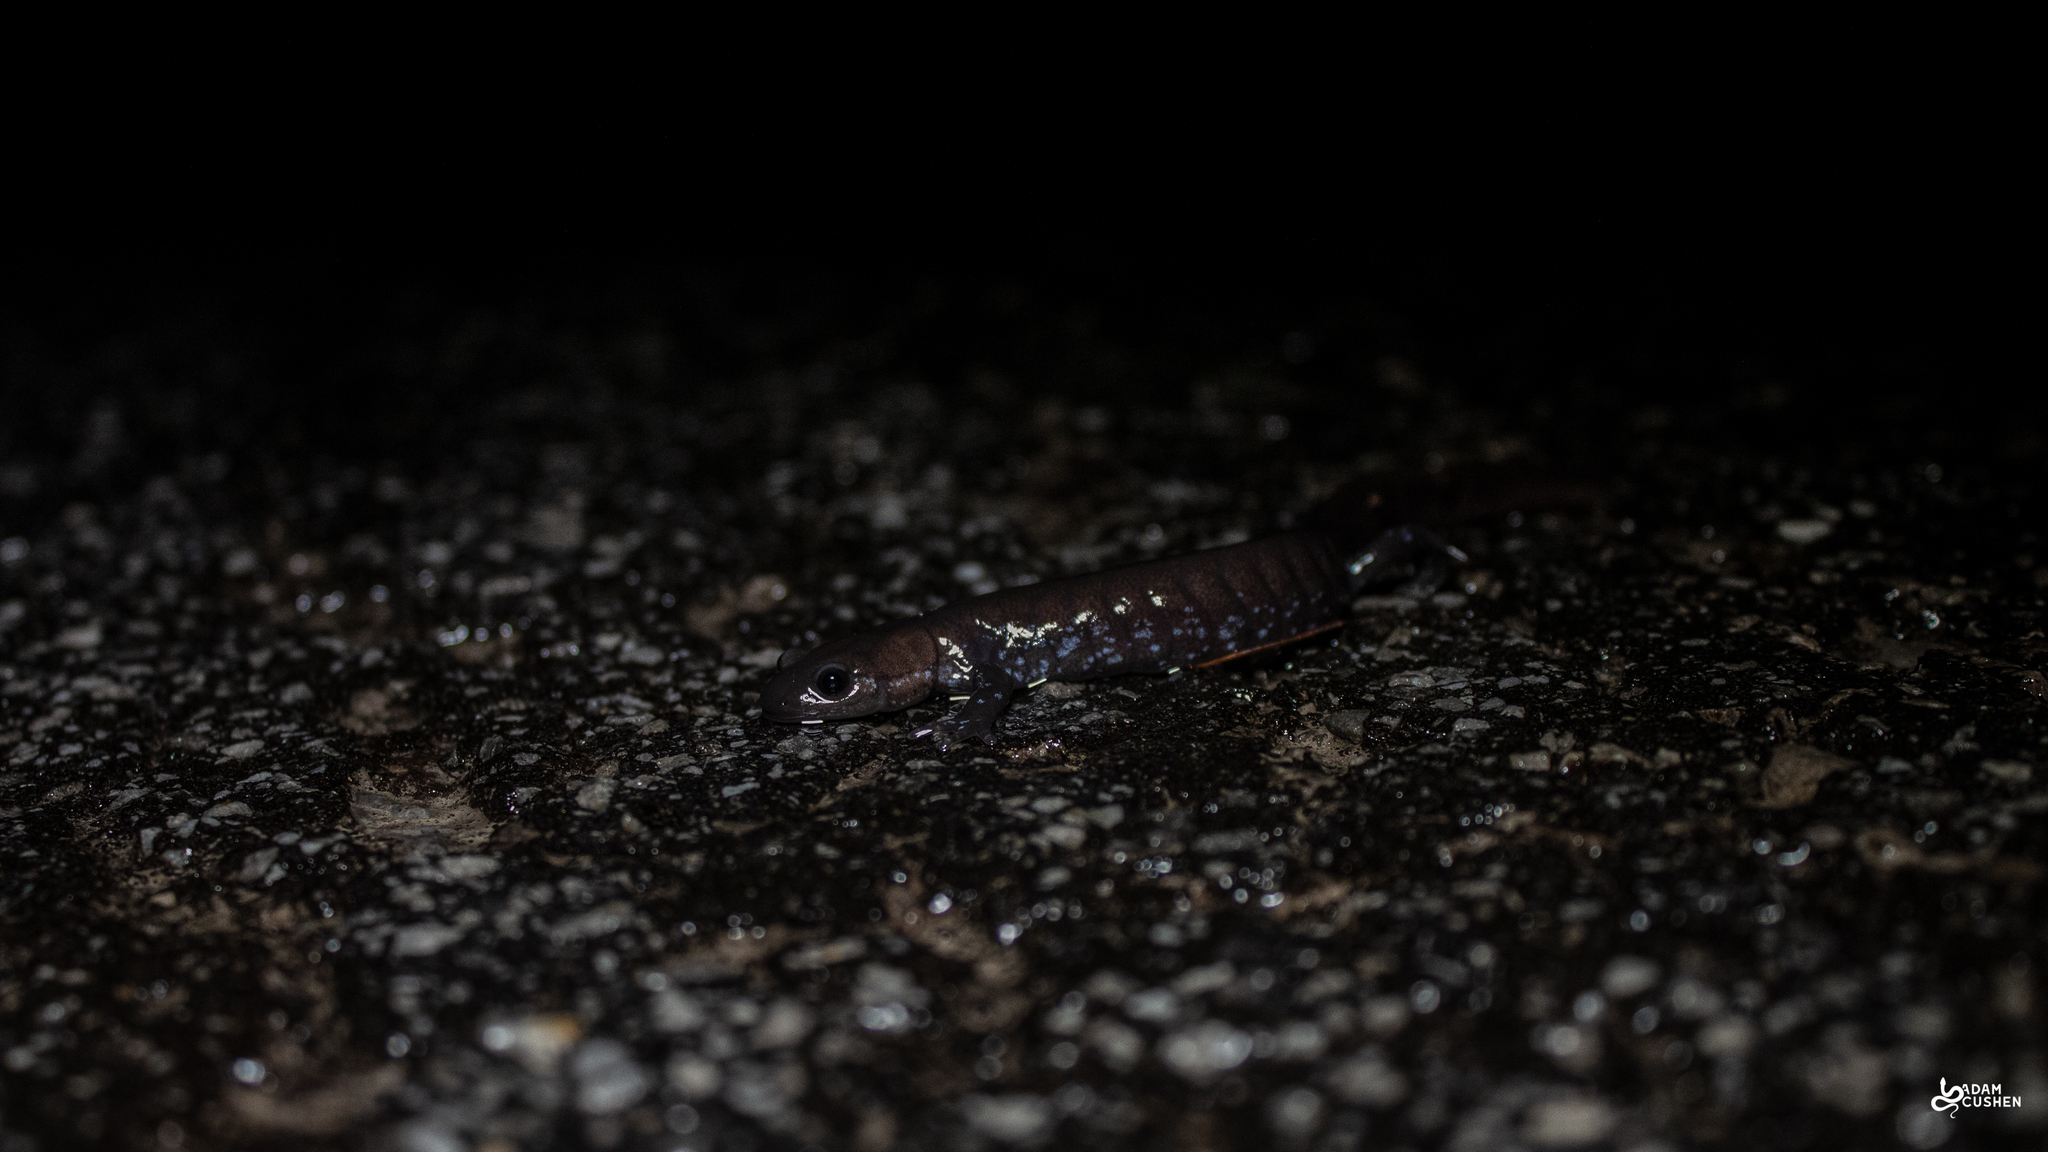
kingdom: Animalia
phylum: Chordata
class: Amphibia
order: Caudata
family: Ambystomatidae
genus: Ambystoma
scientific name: Ambystoma laterale
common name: Blue-spotted salamander
